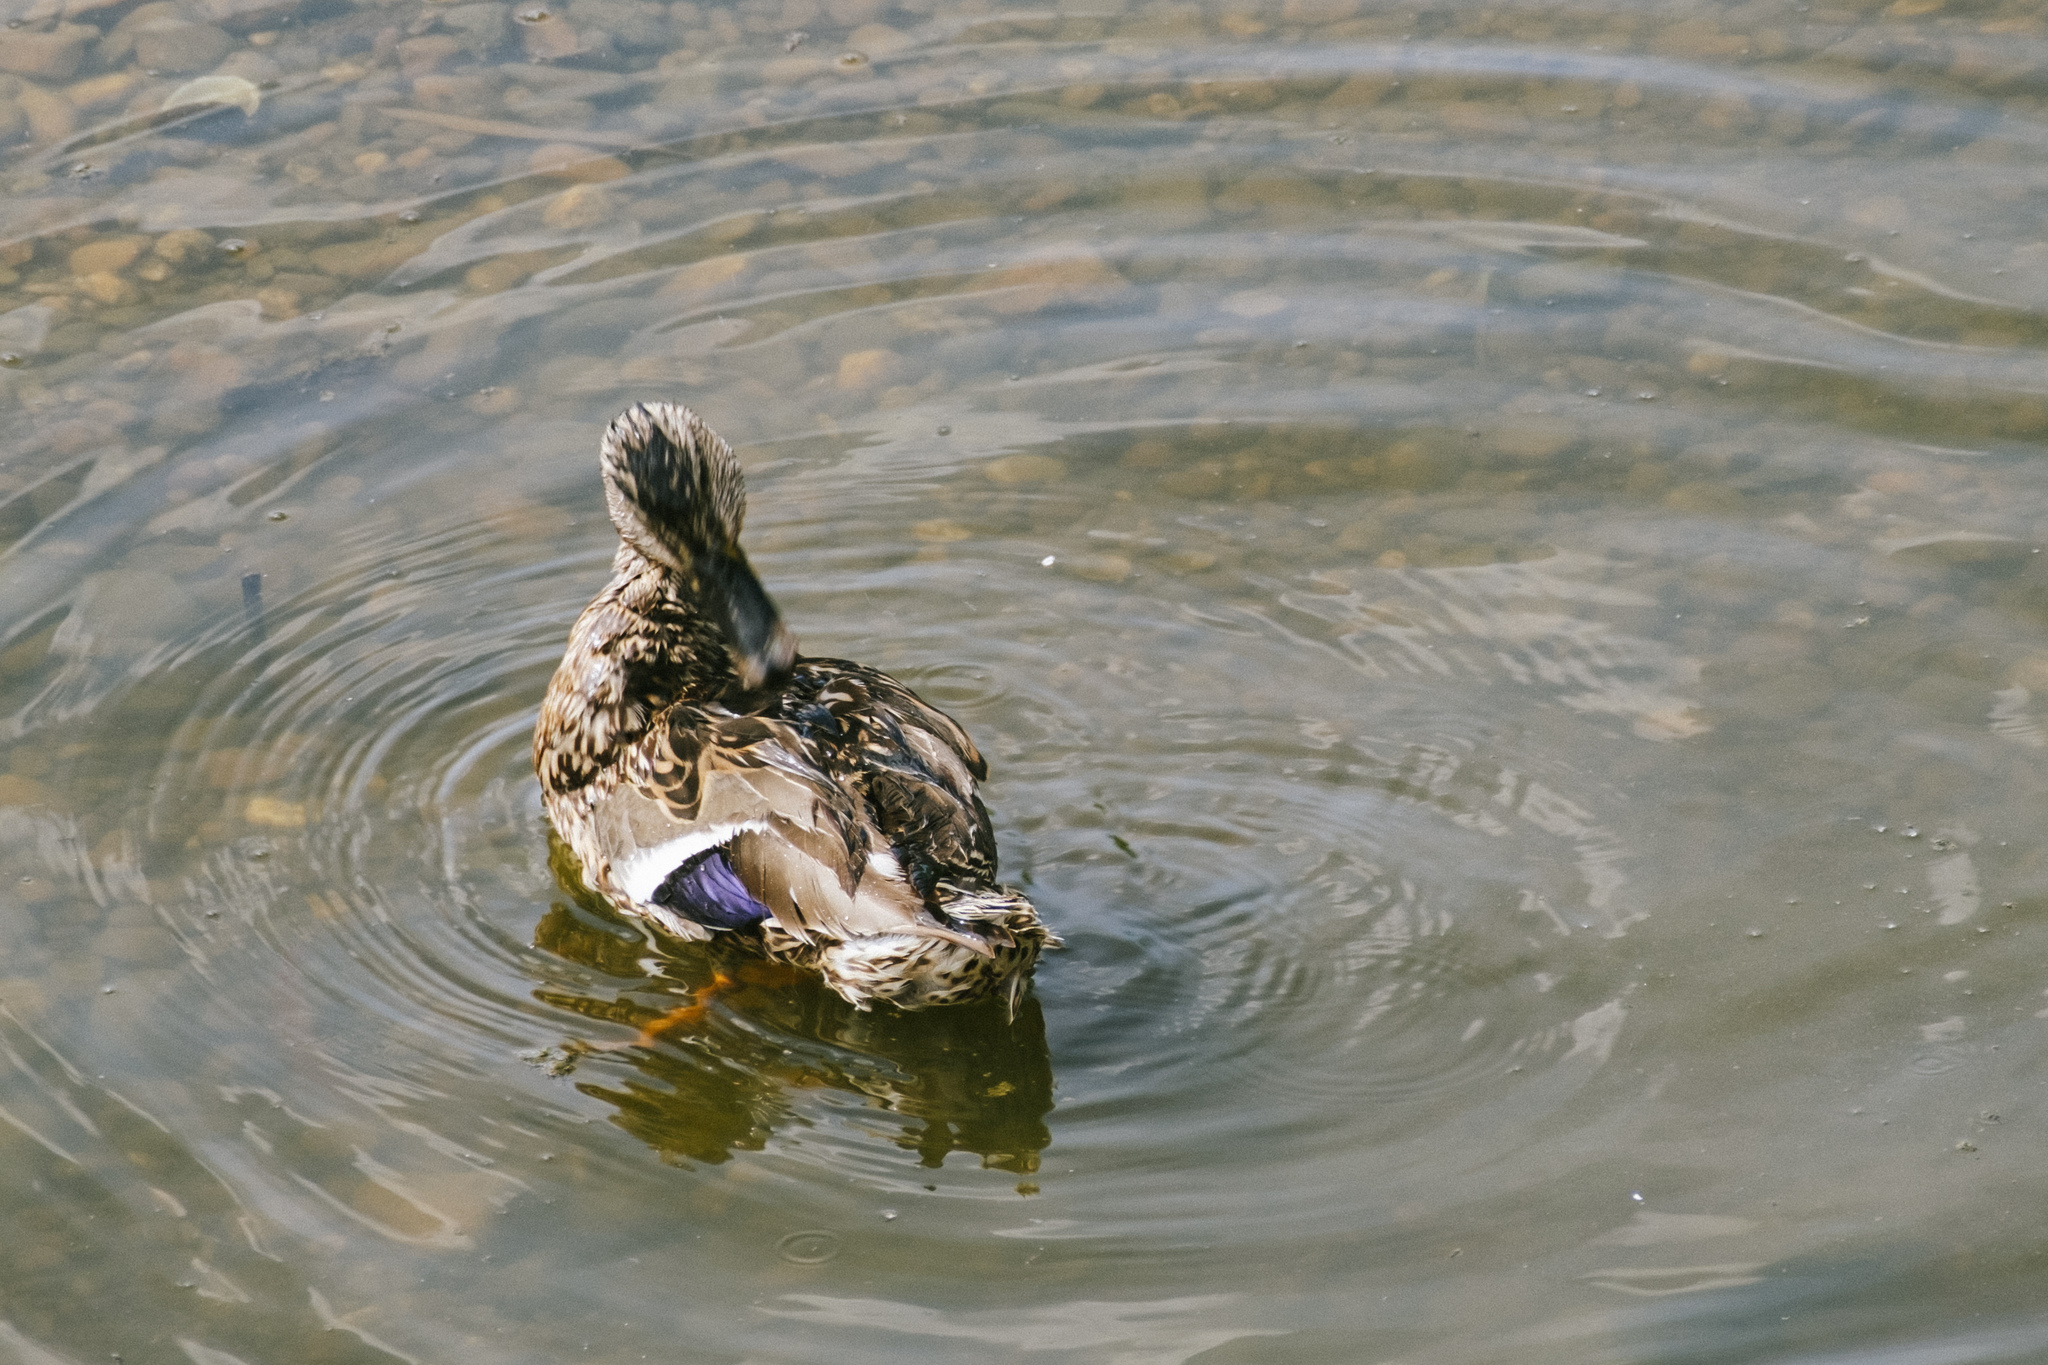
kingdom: Animalia
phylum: Chordata
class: Aves
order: Anseriformes
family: Anatidae
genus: Anas
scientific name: Anas platyrhynchos
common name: Mallard
